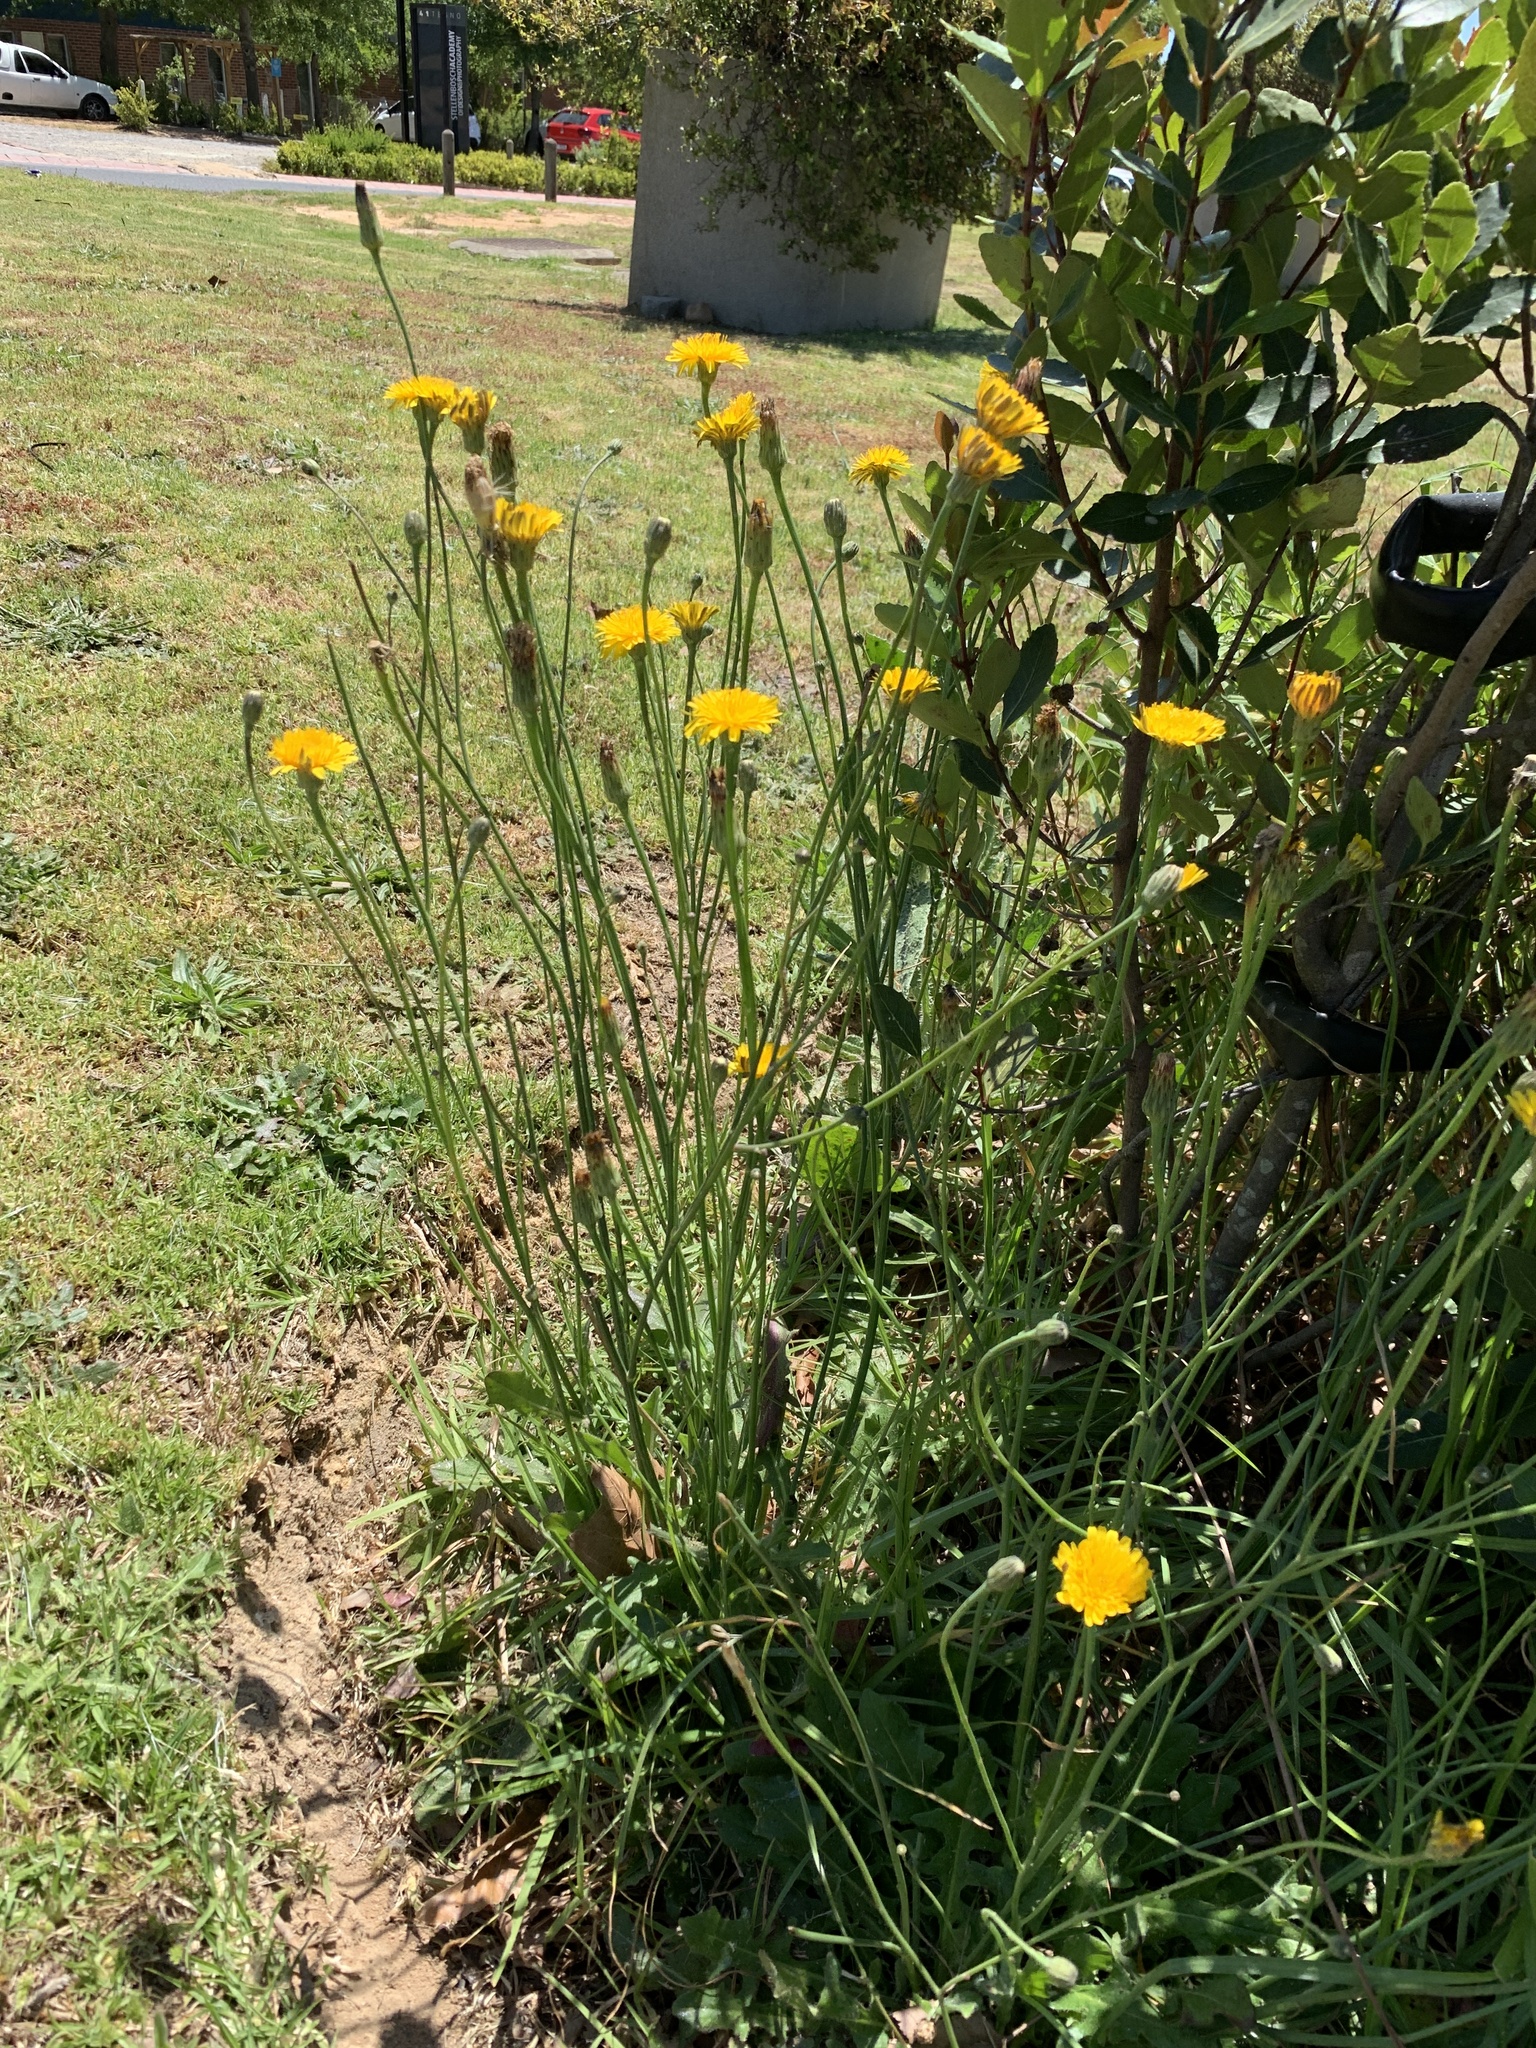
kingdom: Plantae
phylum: Tracheophyta
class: Magnoliopsida
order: Asterales
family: Asteraceae
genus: Hypochaeris
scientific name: Hypochaeris radicata
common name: Flatweed
